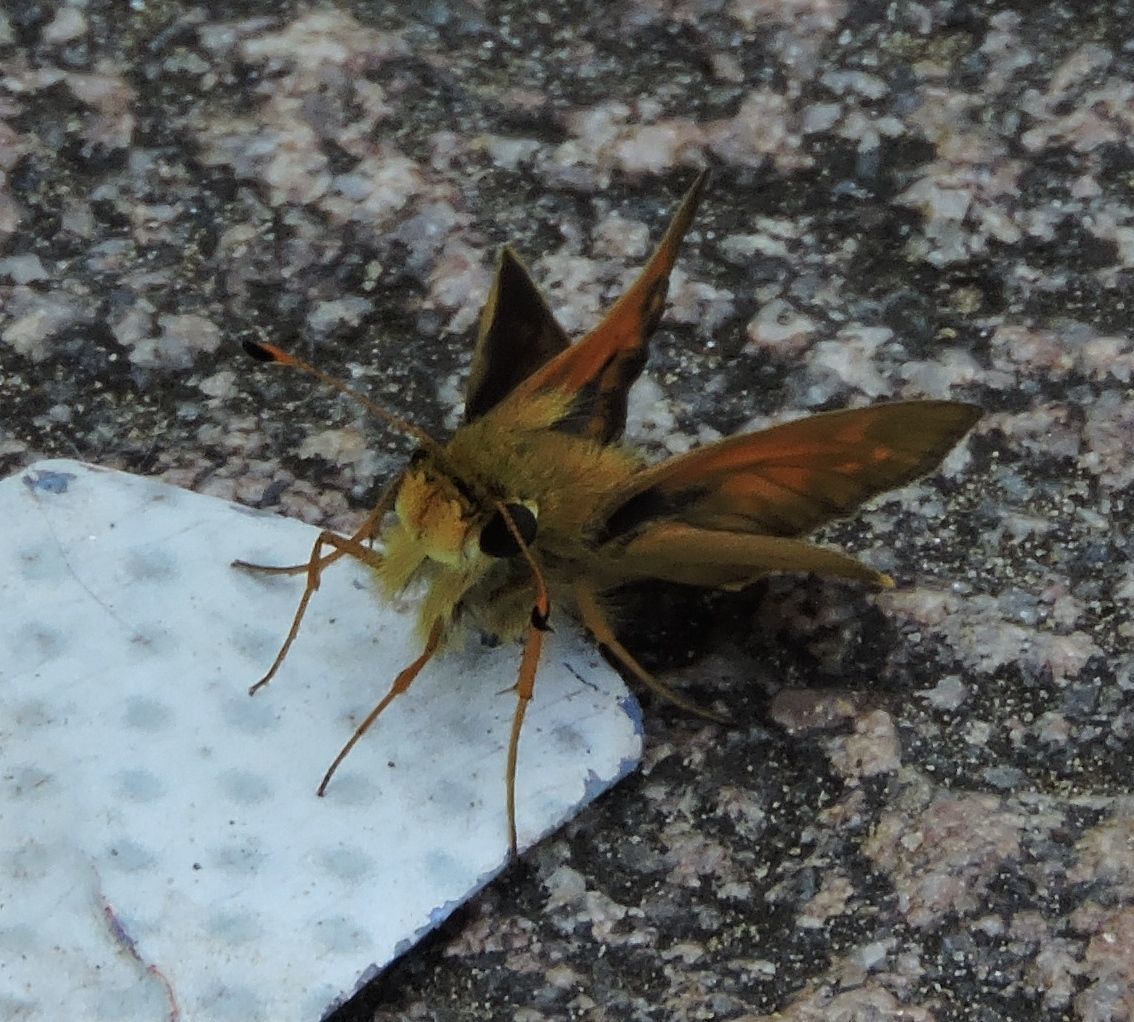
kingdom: Animalia
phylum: Arthropoda
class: Insecta
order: Lepidoptera
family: Hesperiidae
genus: Atalopedes
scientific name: Atalopedes
